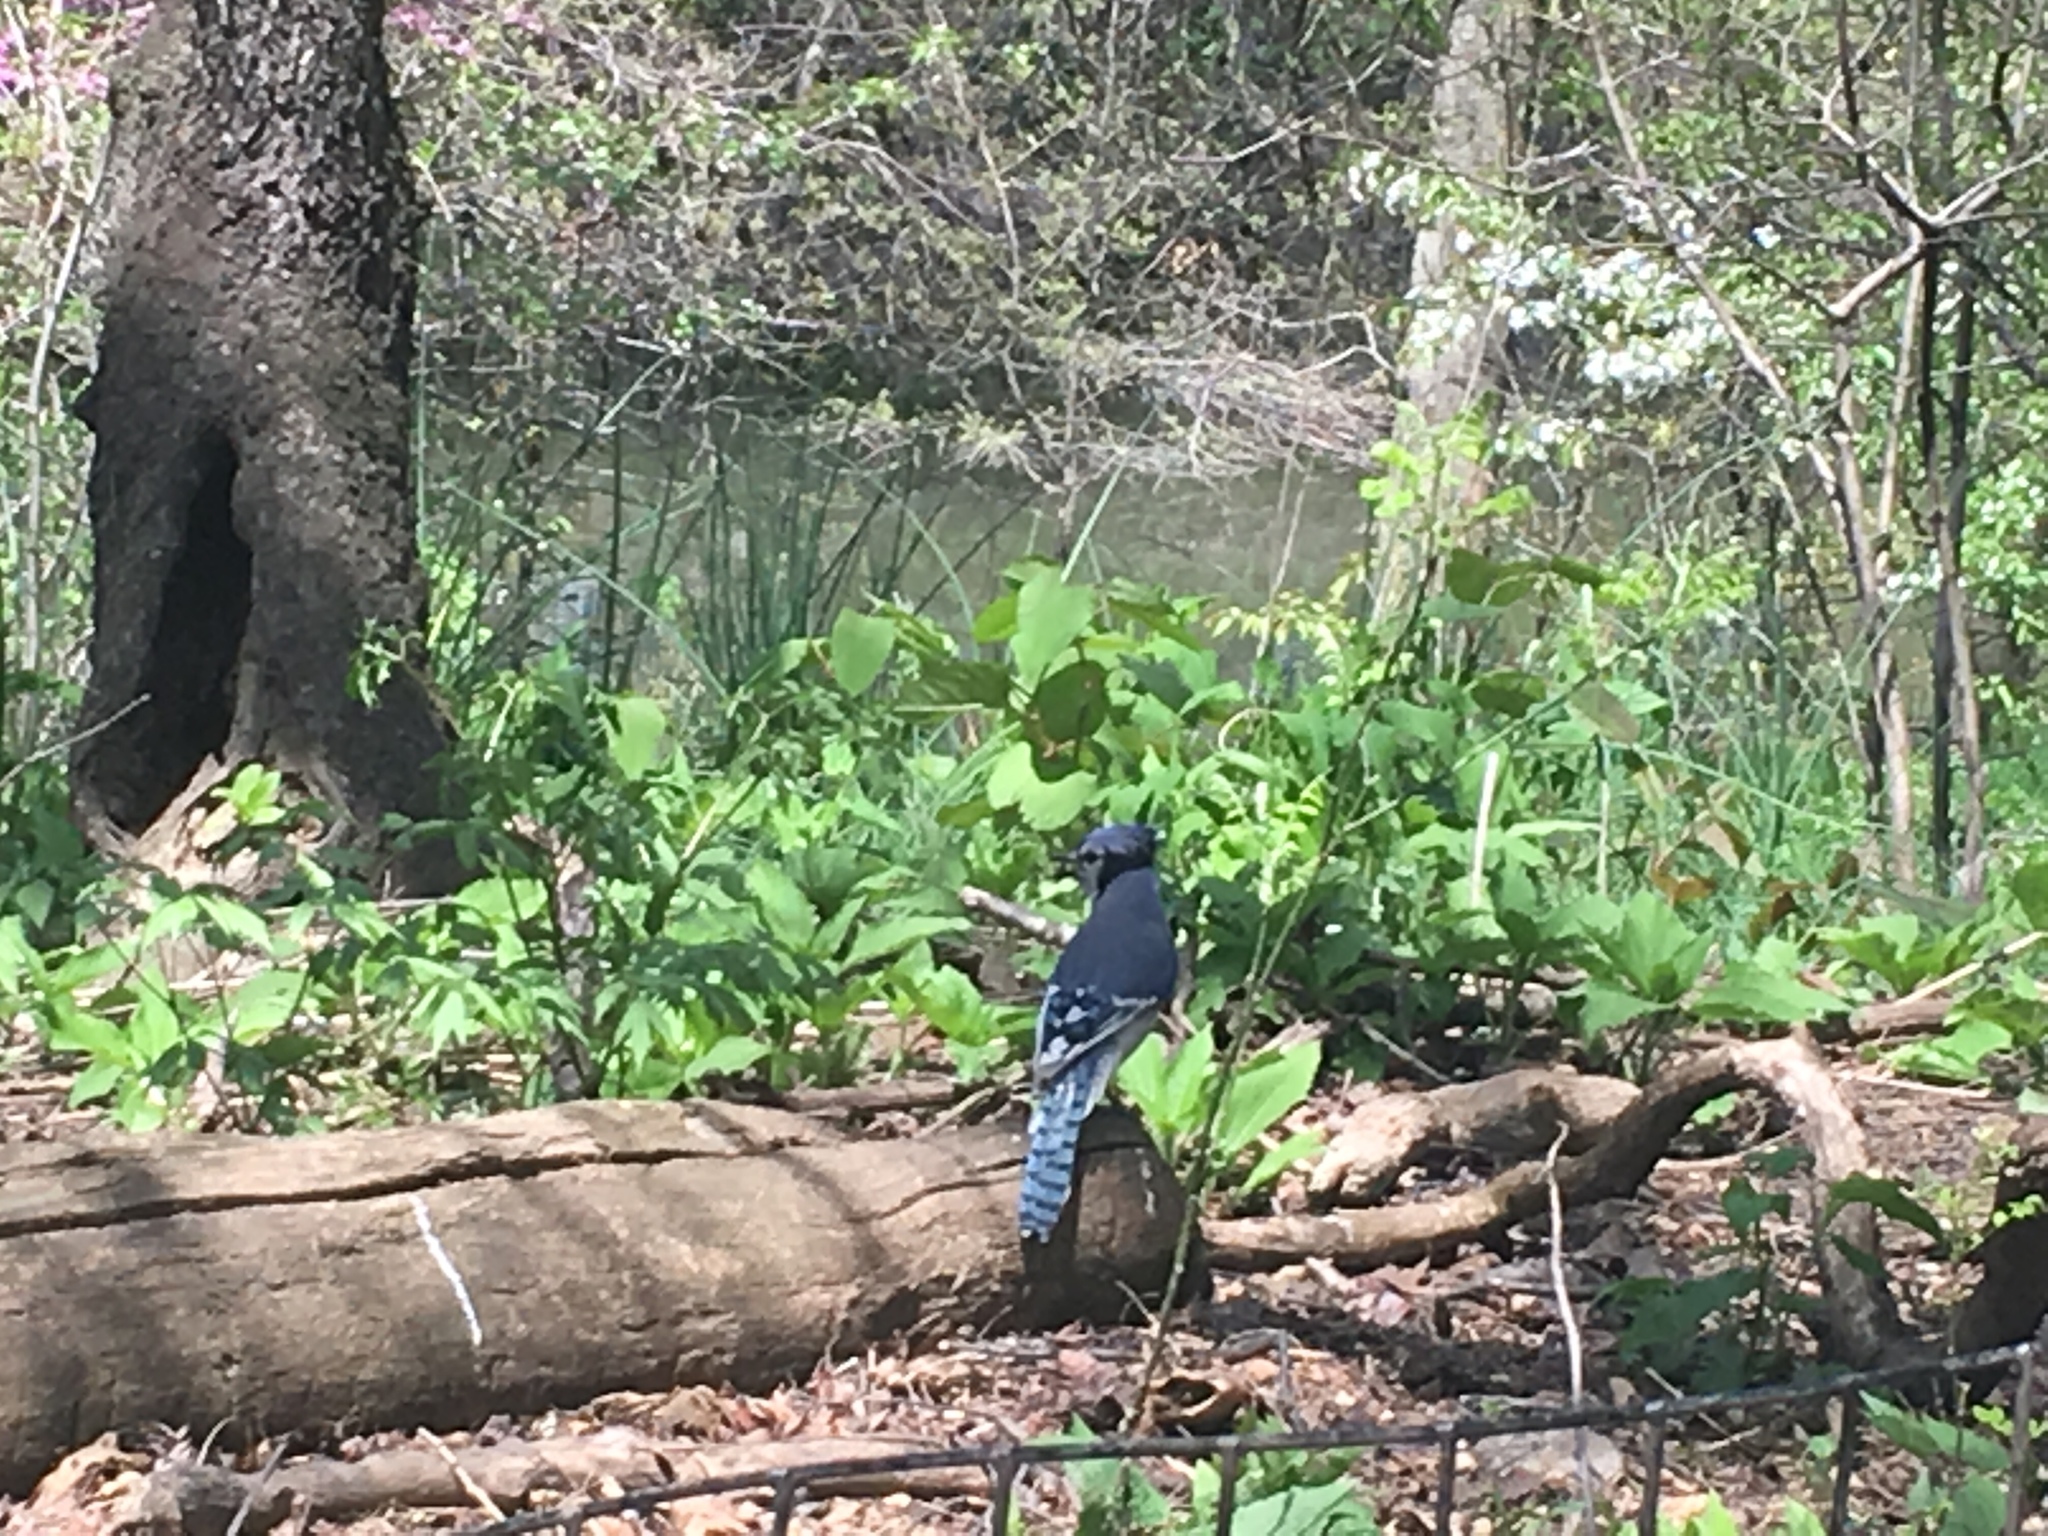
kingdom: Animalia
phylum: Chordata
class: Aves
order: Passeriformes
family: Corvidae
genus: Cyanocitta
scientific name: Cyanocitta cristata
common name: Blue jay
